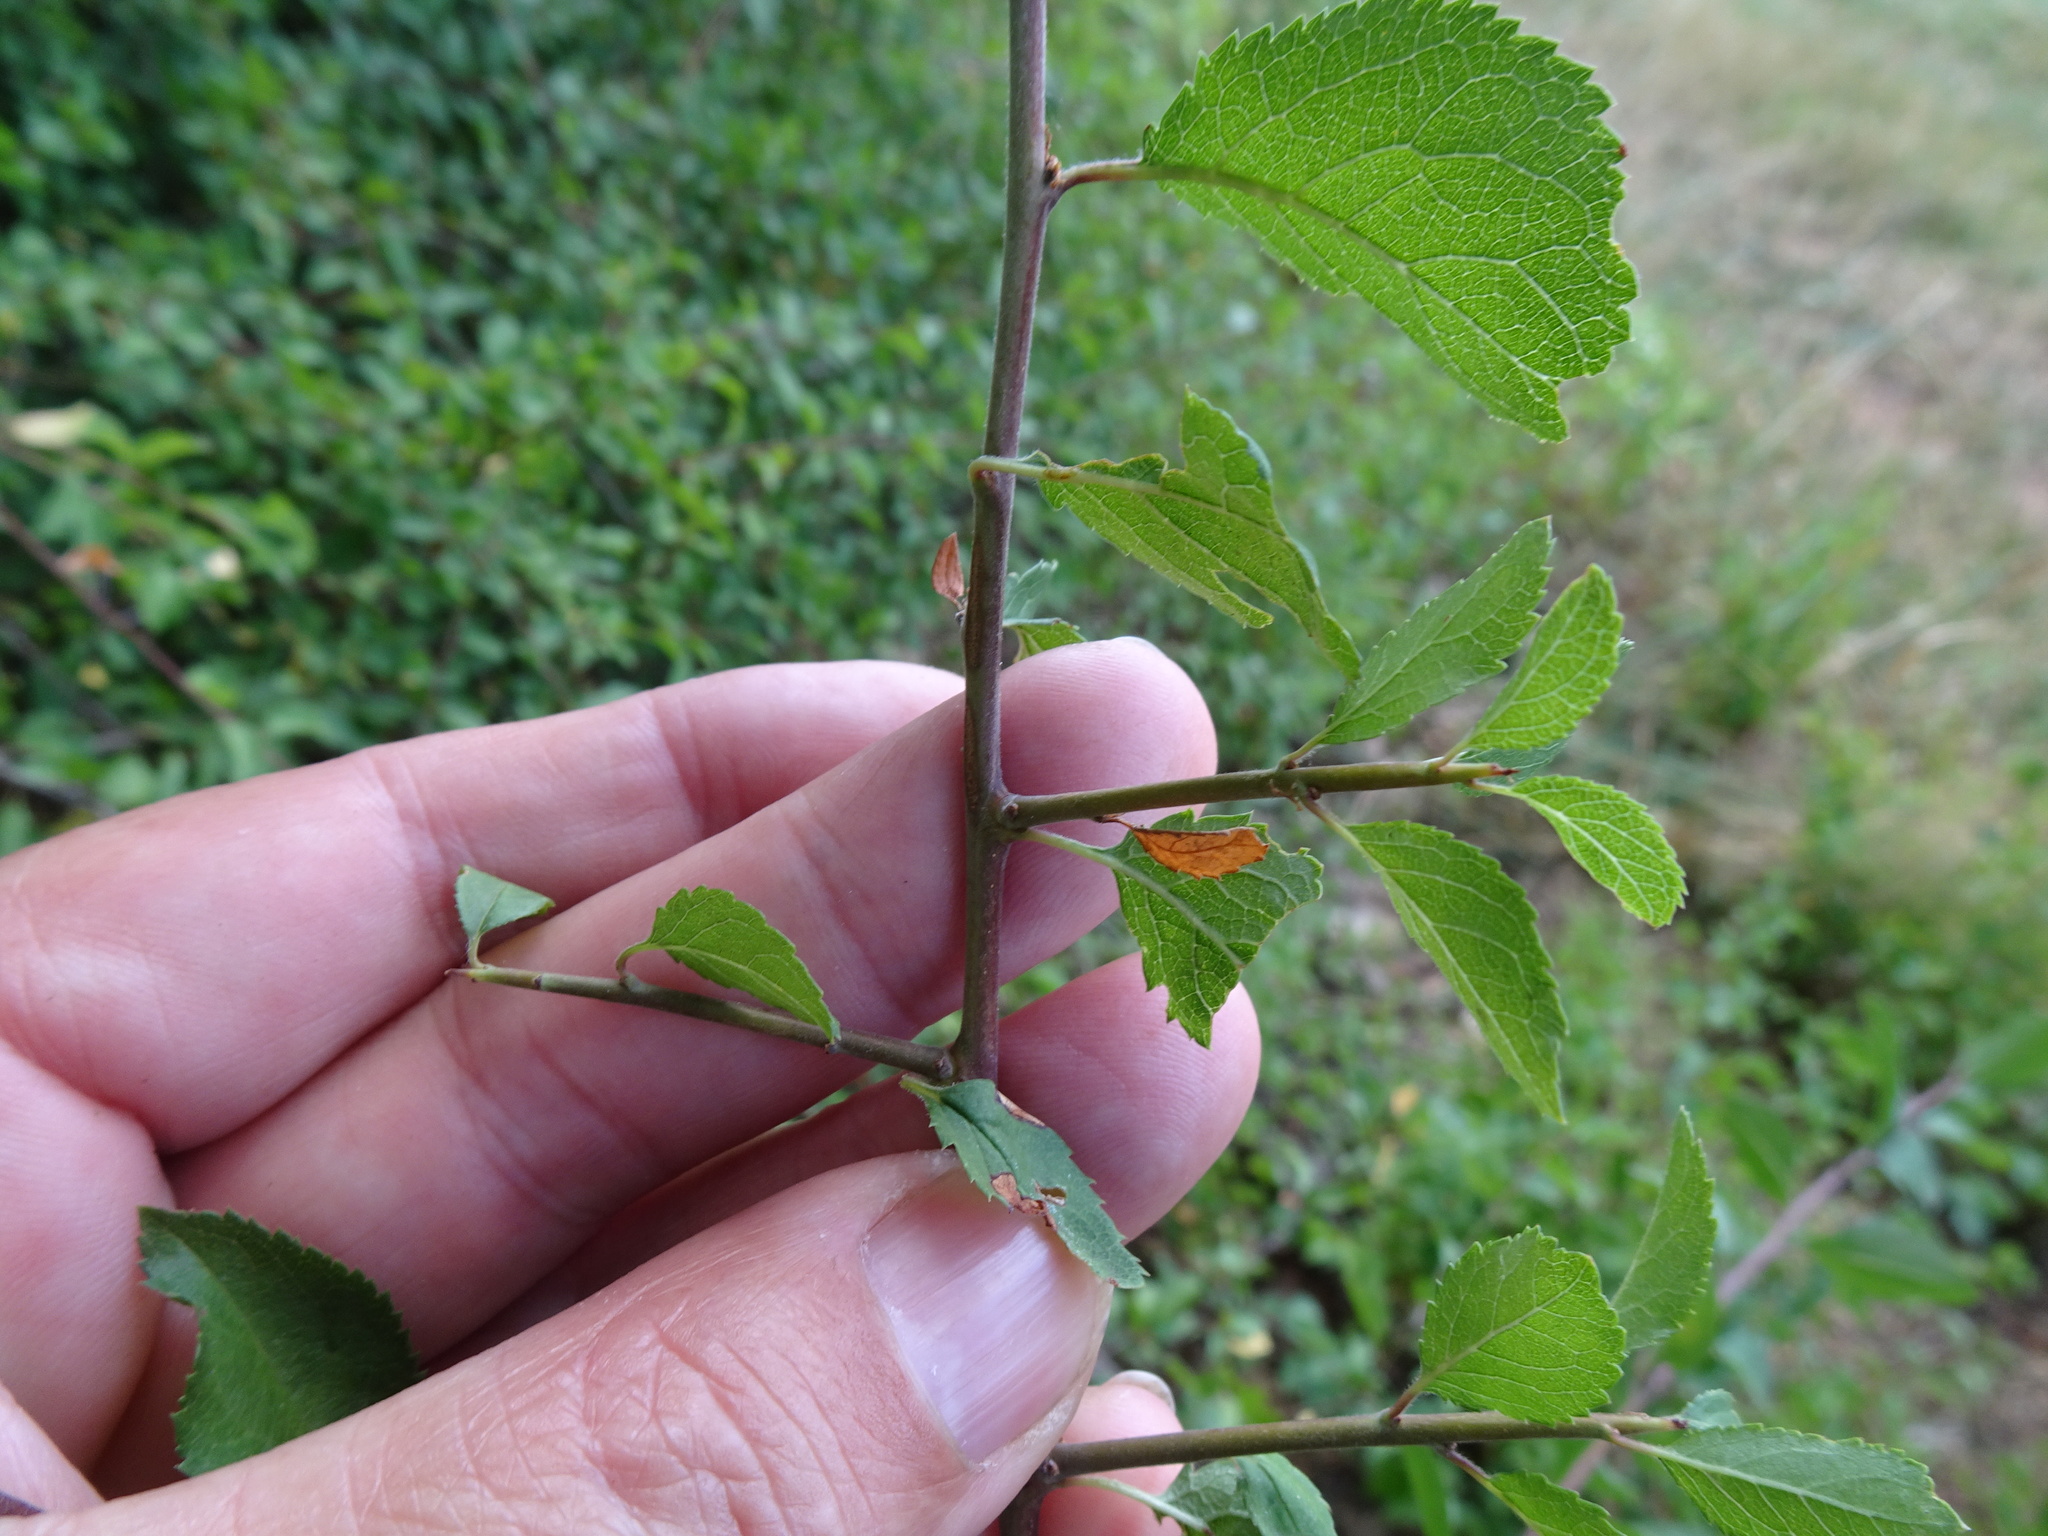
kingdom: Plantae
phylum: Tracheophyta
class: Magnoliopsida
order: Rosales
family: Rosaceae
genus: Prunus
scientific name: Prunus spinosa
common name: Blackthorn
